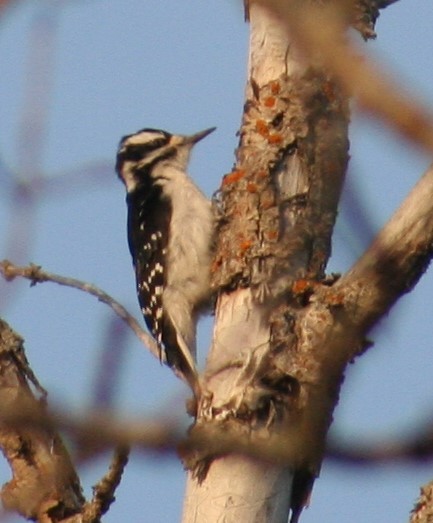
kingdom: Animalia
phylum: Chordata
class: Aves
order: Piciformes
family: Picidae
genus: Leuconotopicus
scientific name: Leuconotopicus villosus
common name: Hairy woodpecker
